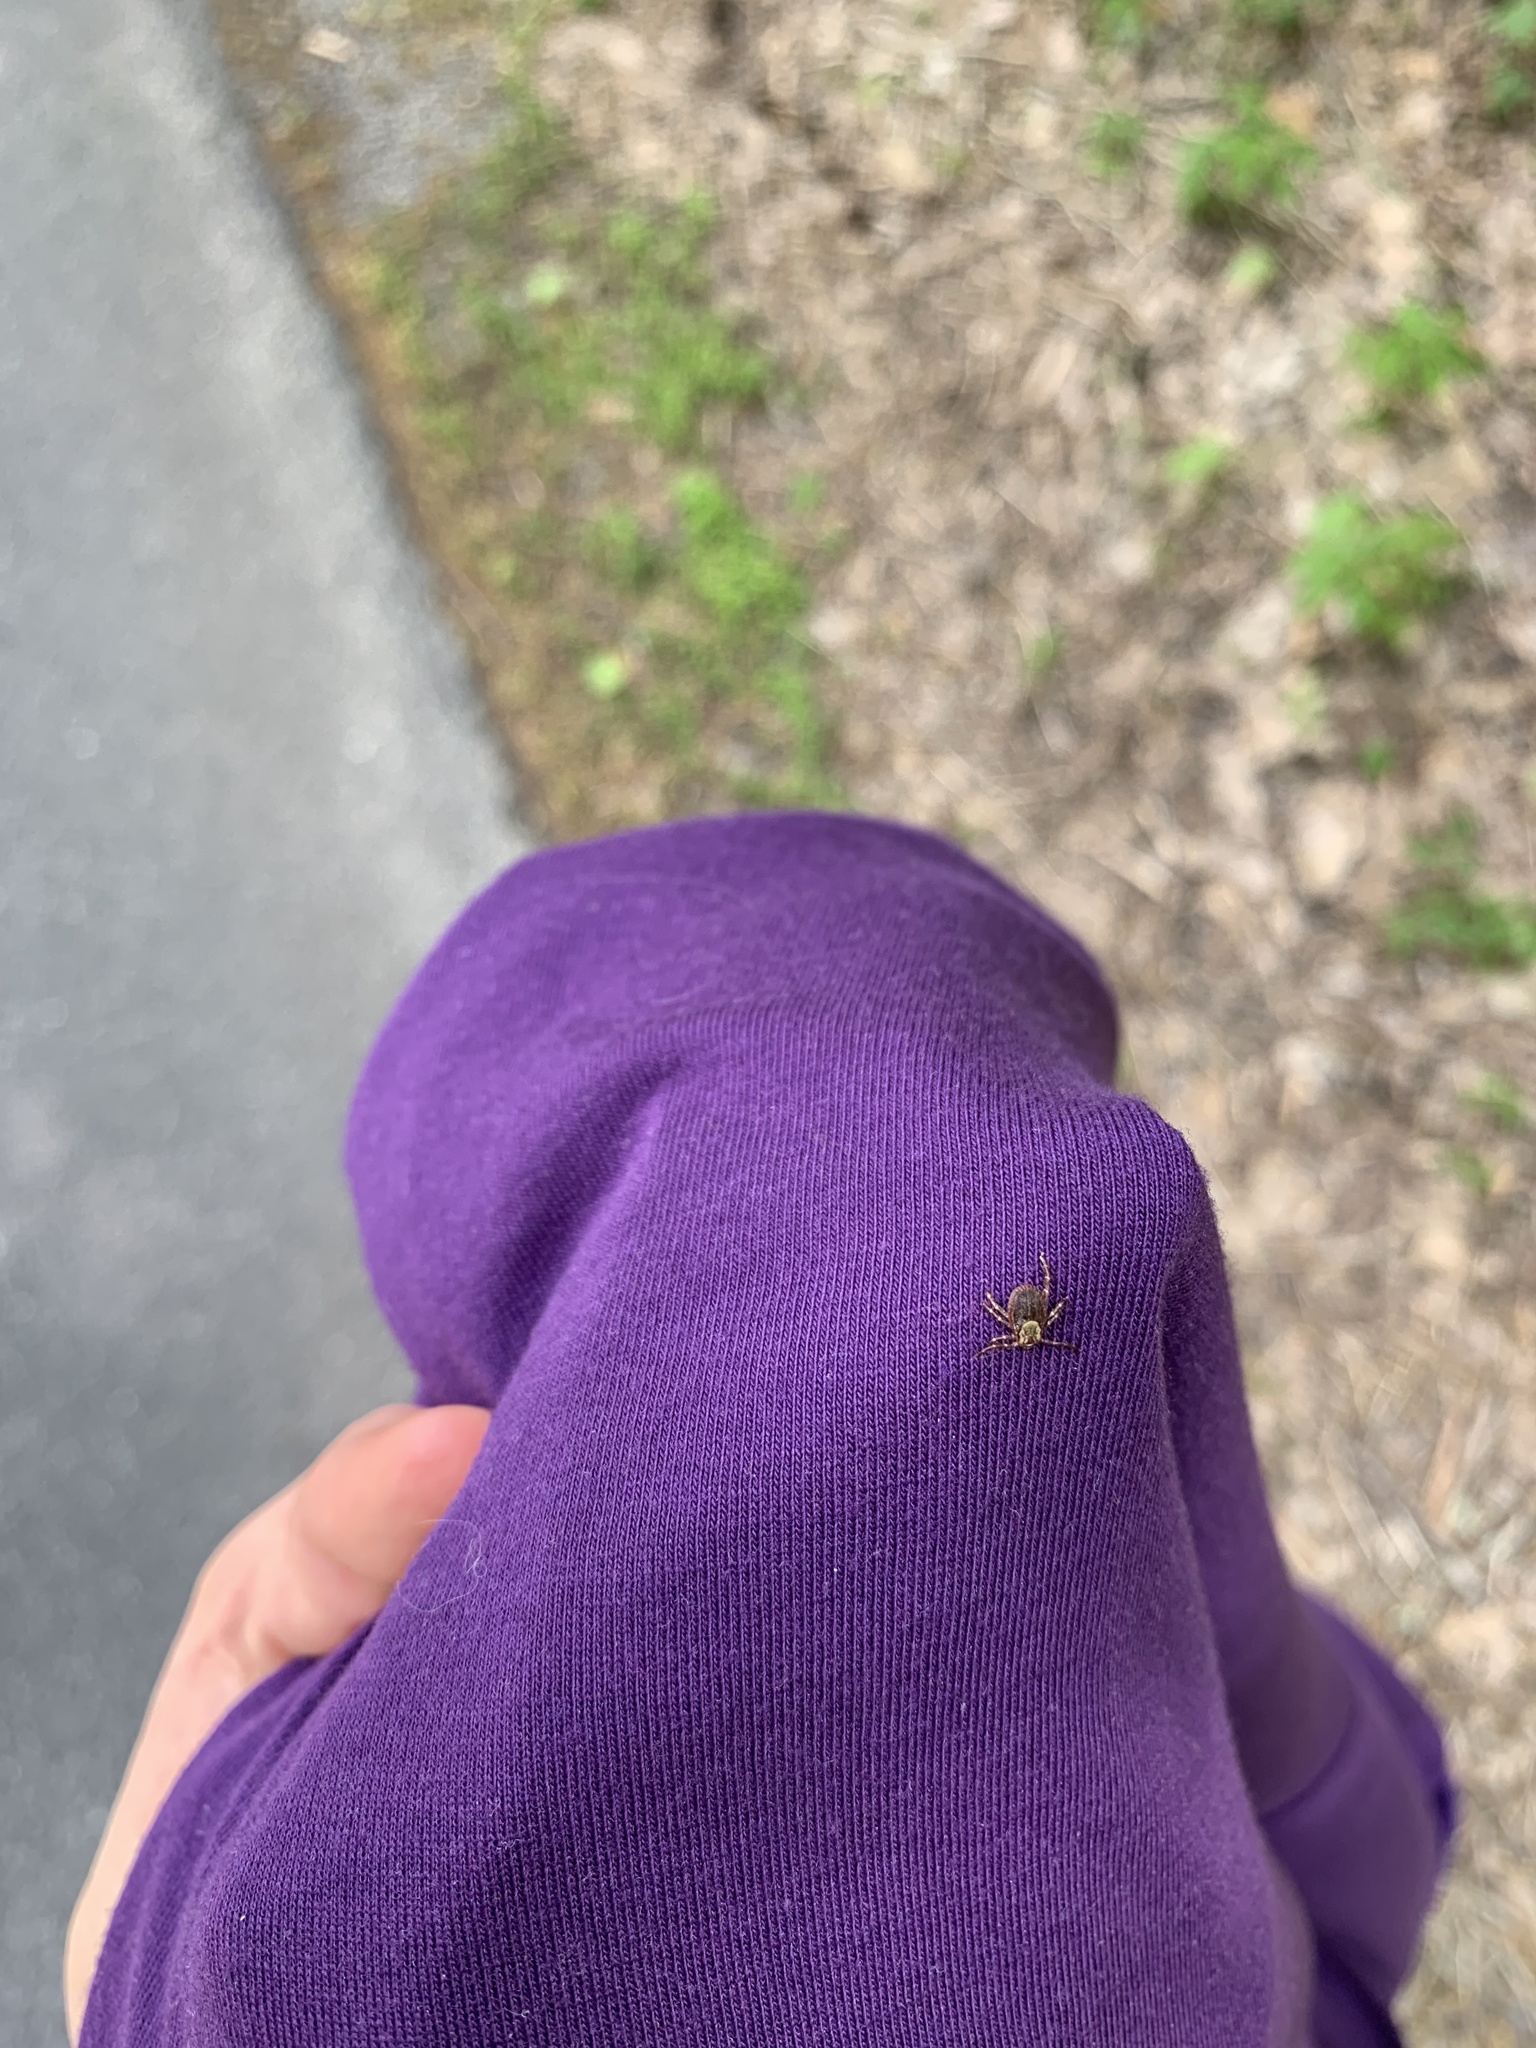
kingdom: Animalia
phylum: Arthropoda
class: Arachnida
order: Ixodida
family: Ixodidae
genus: Dermacentor
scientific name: Dermacentor variabilis
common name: American dog tick
